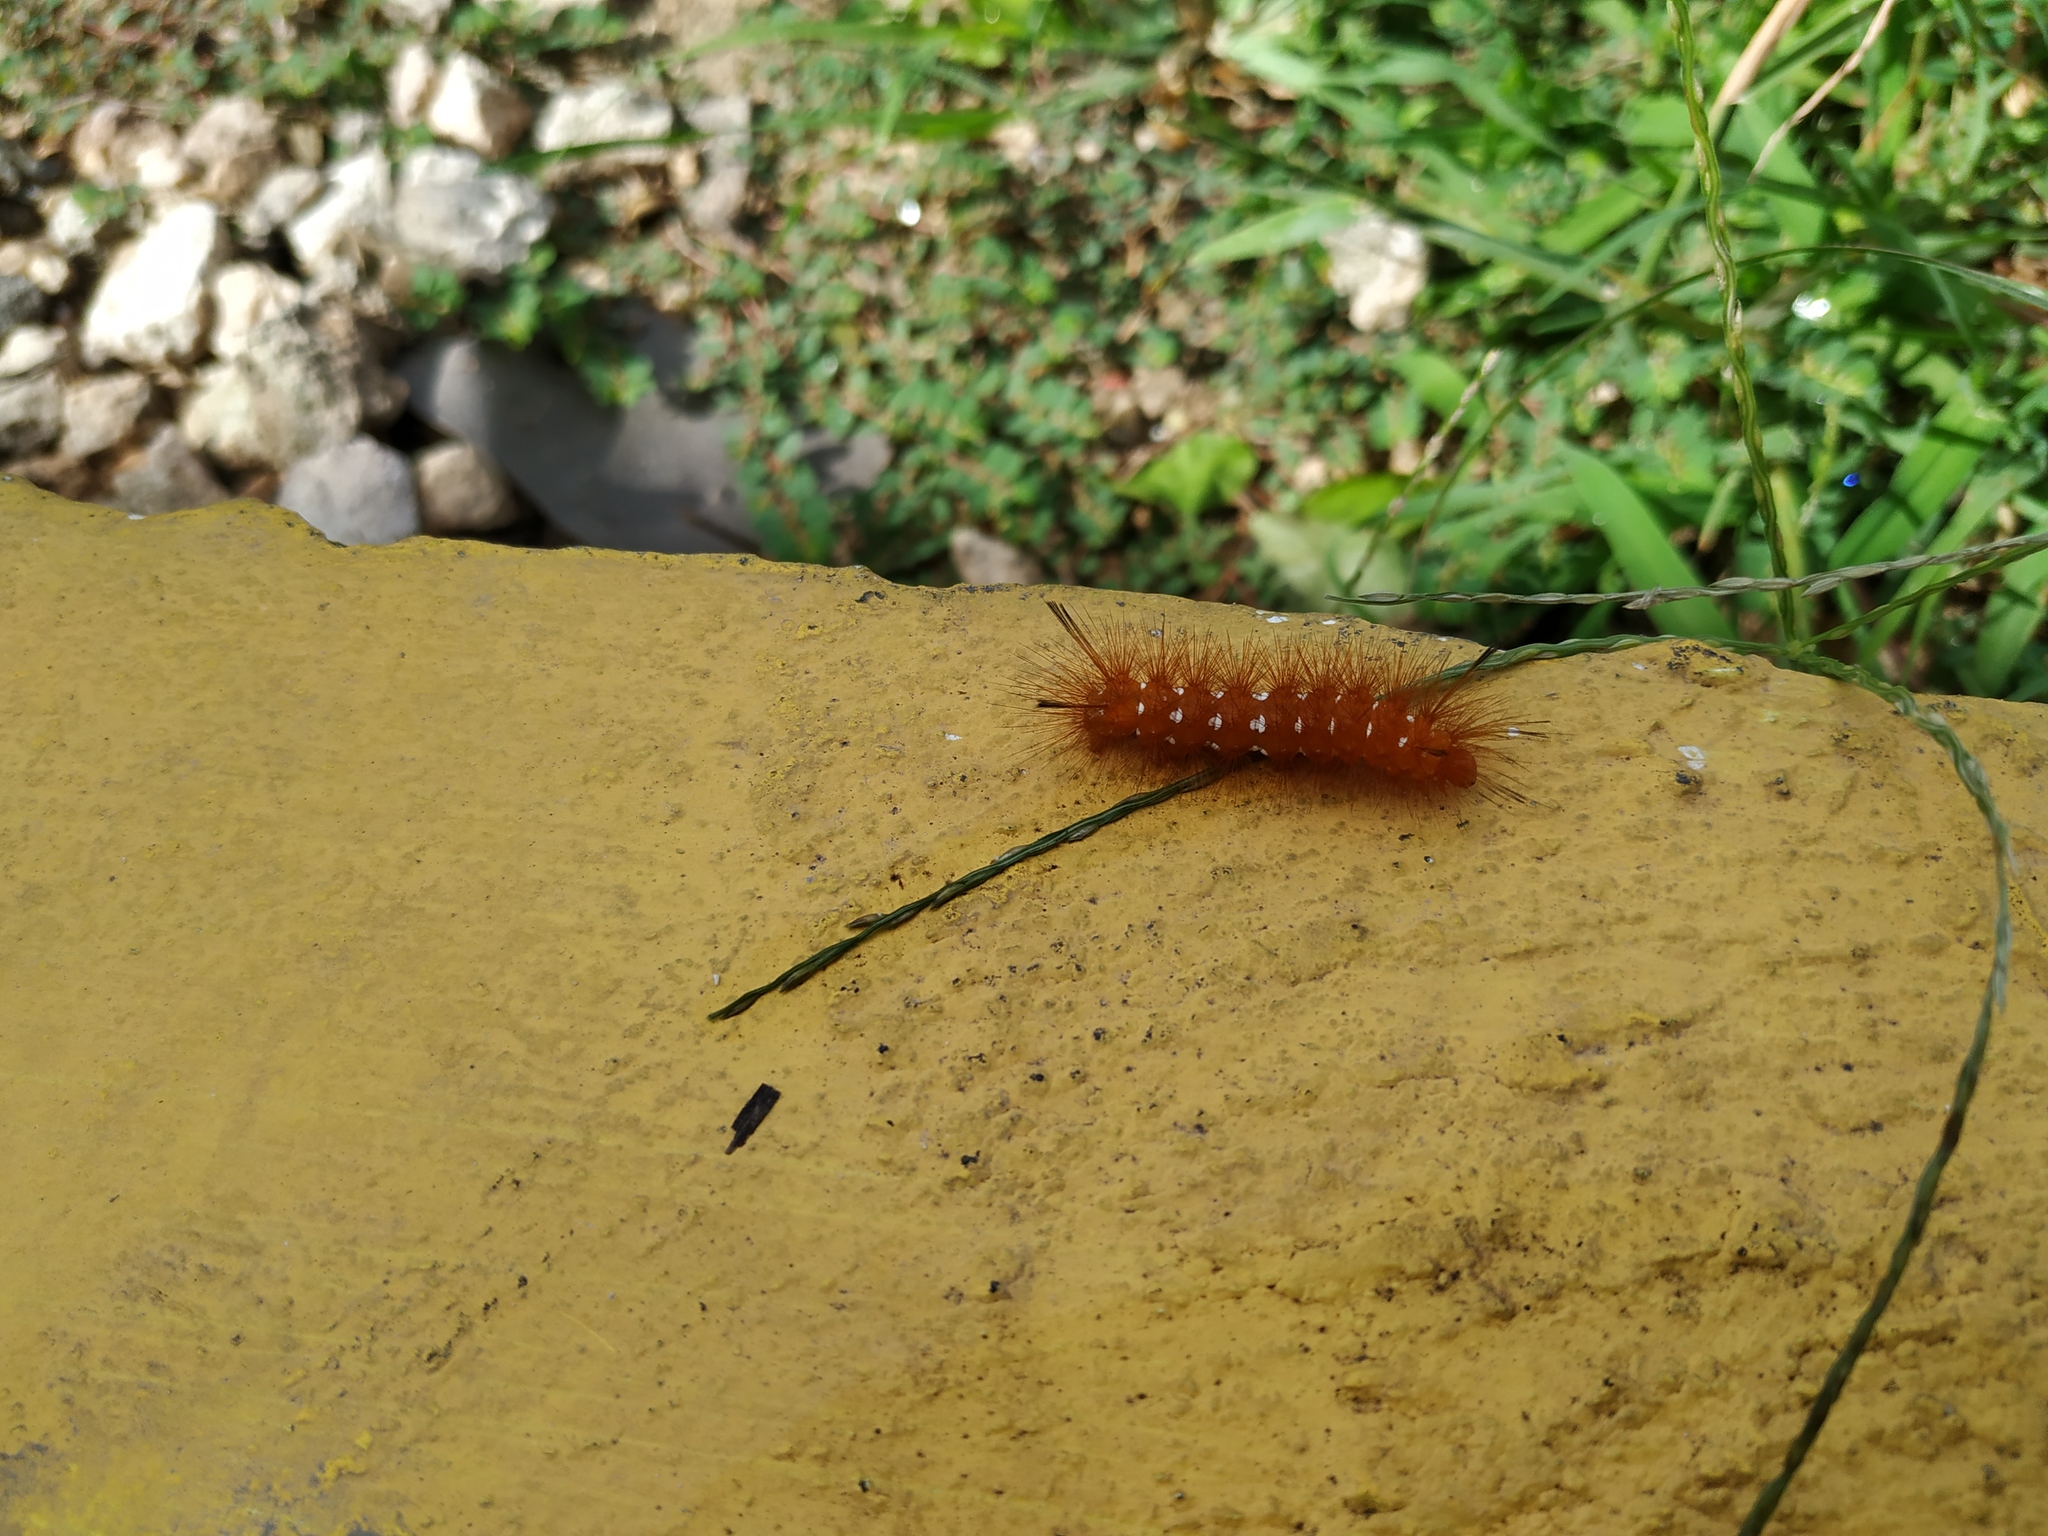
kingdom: Animalia
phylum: Arthropoda
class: Insecta
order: Lepidoptera
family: Erebidae
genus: Empyreuma
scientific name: Empyreuma pugione
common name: Spotted oleander caterpillar moth
